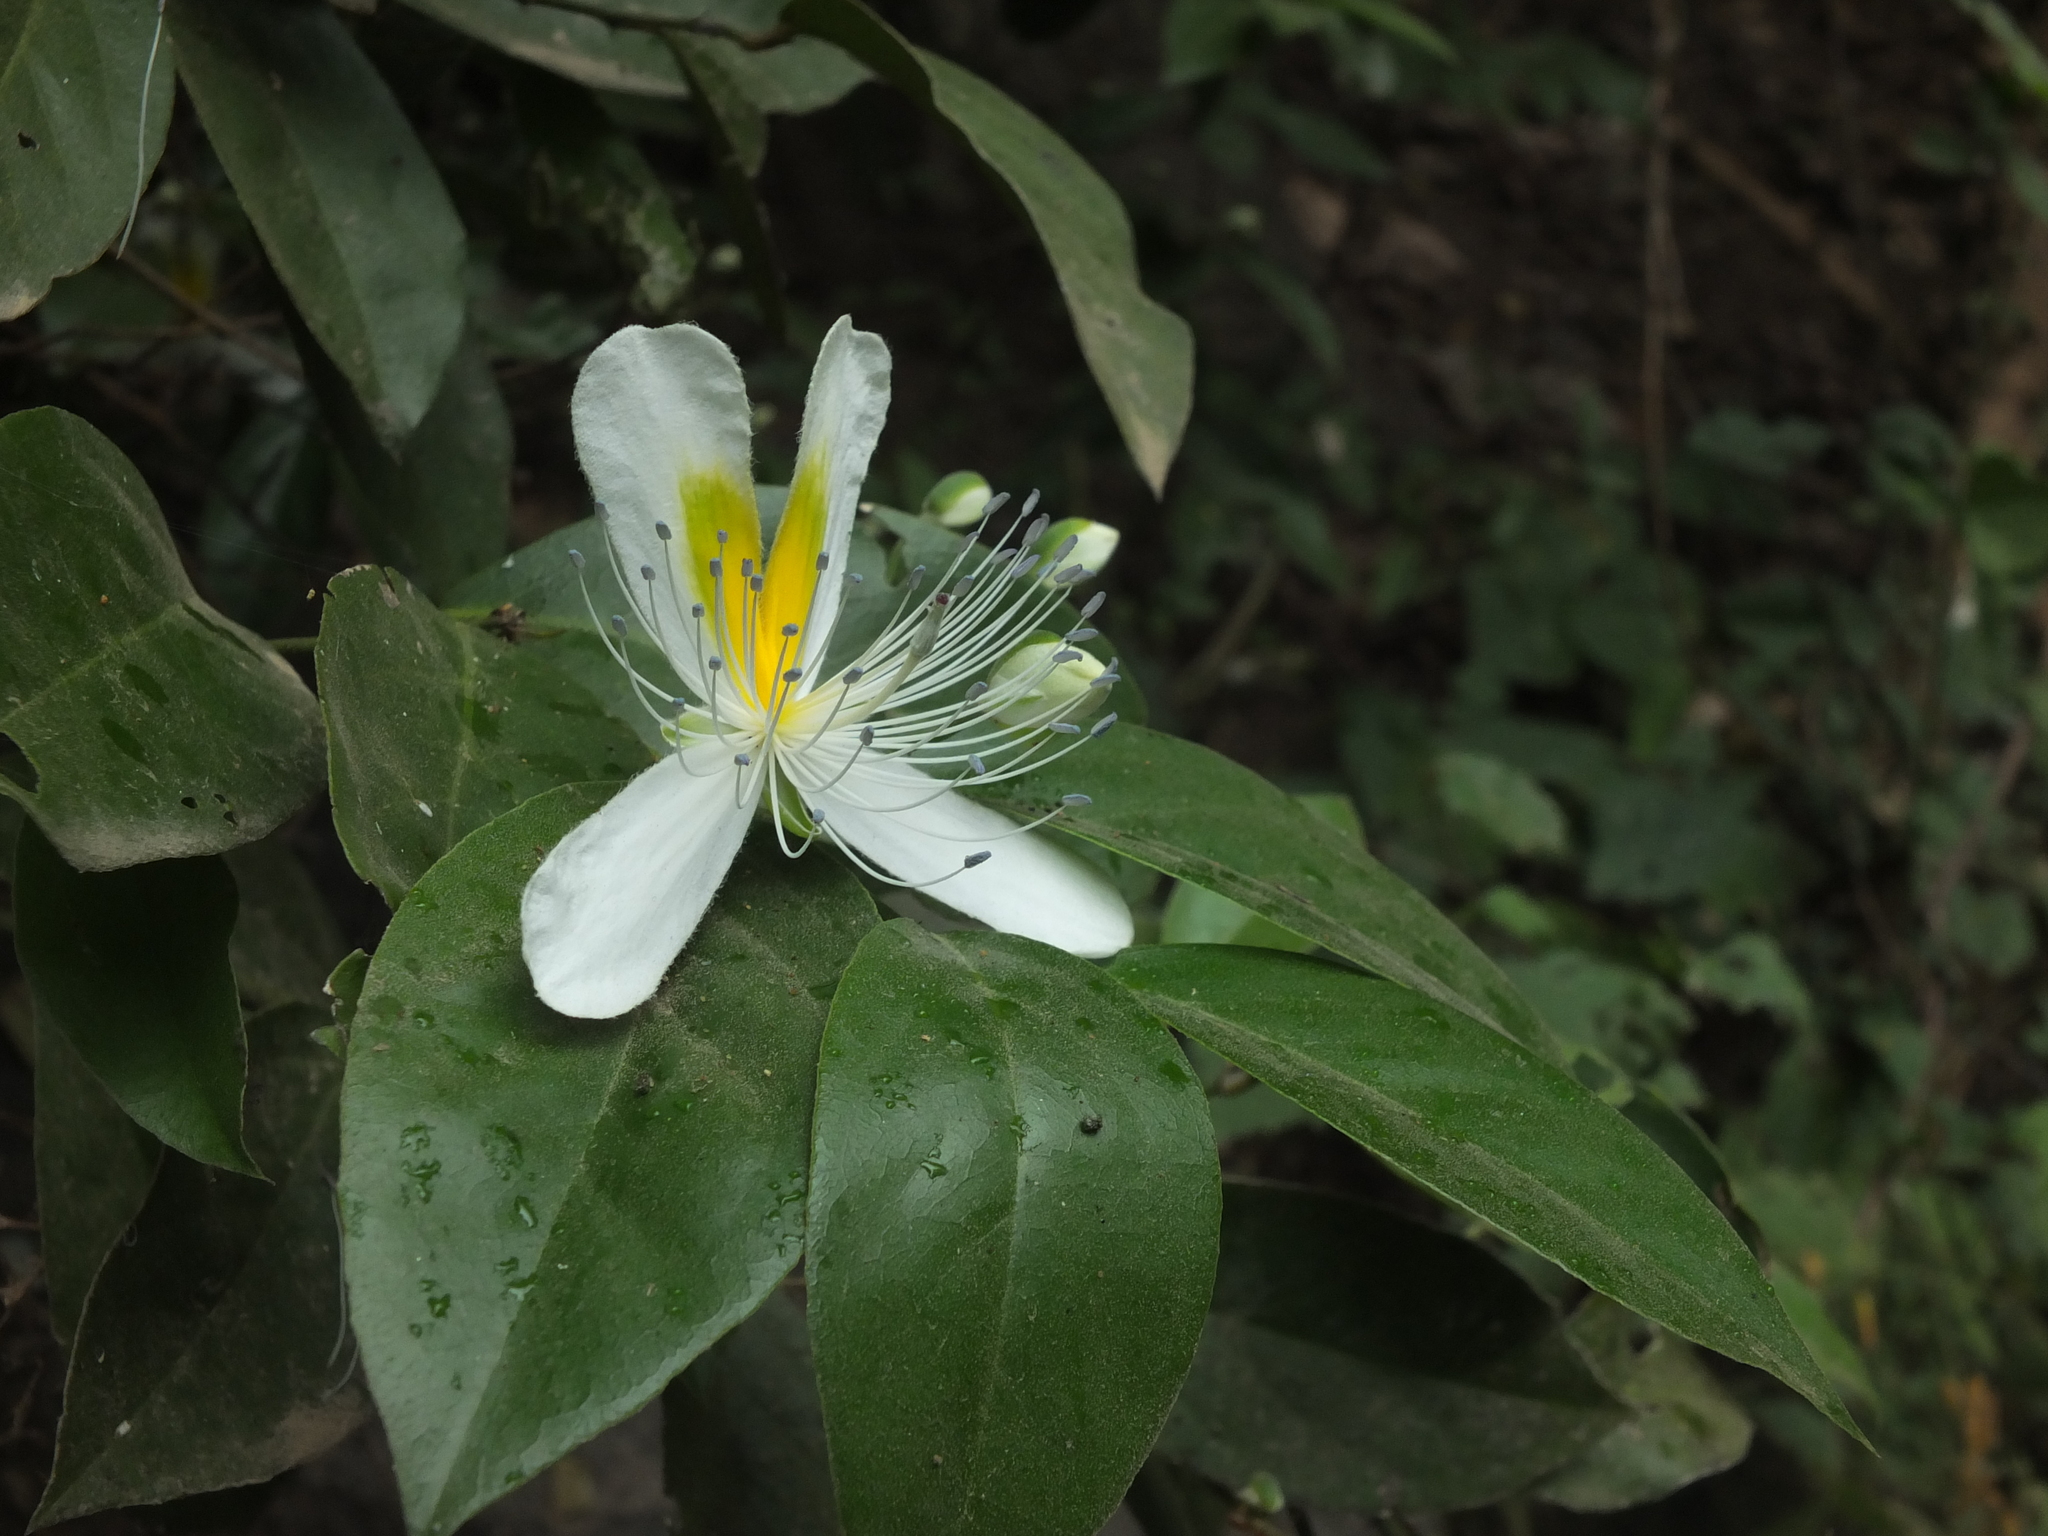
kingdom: Plantae
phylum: Tracheophyta
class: Magnoliopsida
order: Brassicales
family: Capparaceae
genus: Capparis
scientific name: Capparis brevispina
